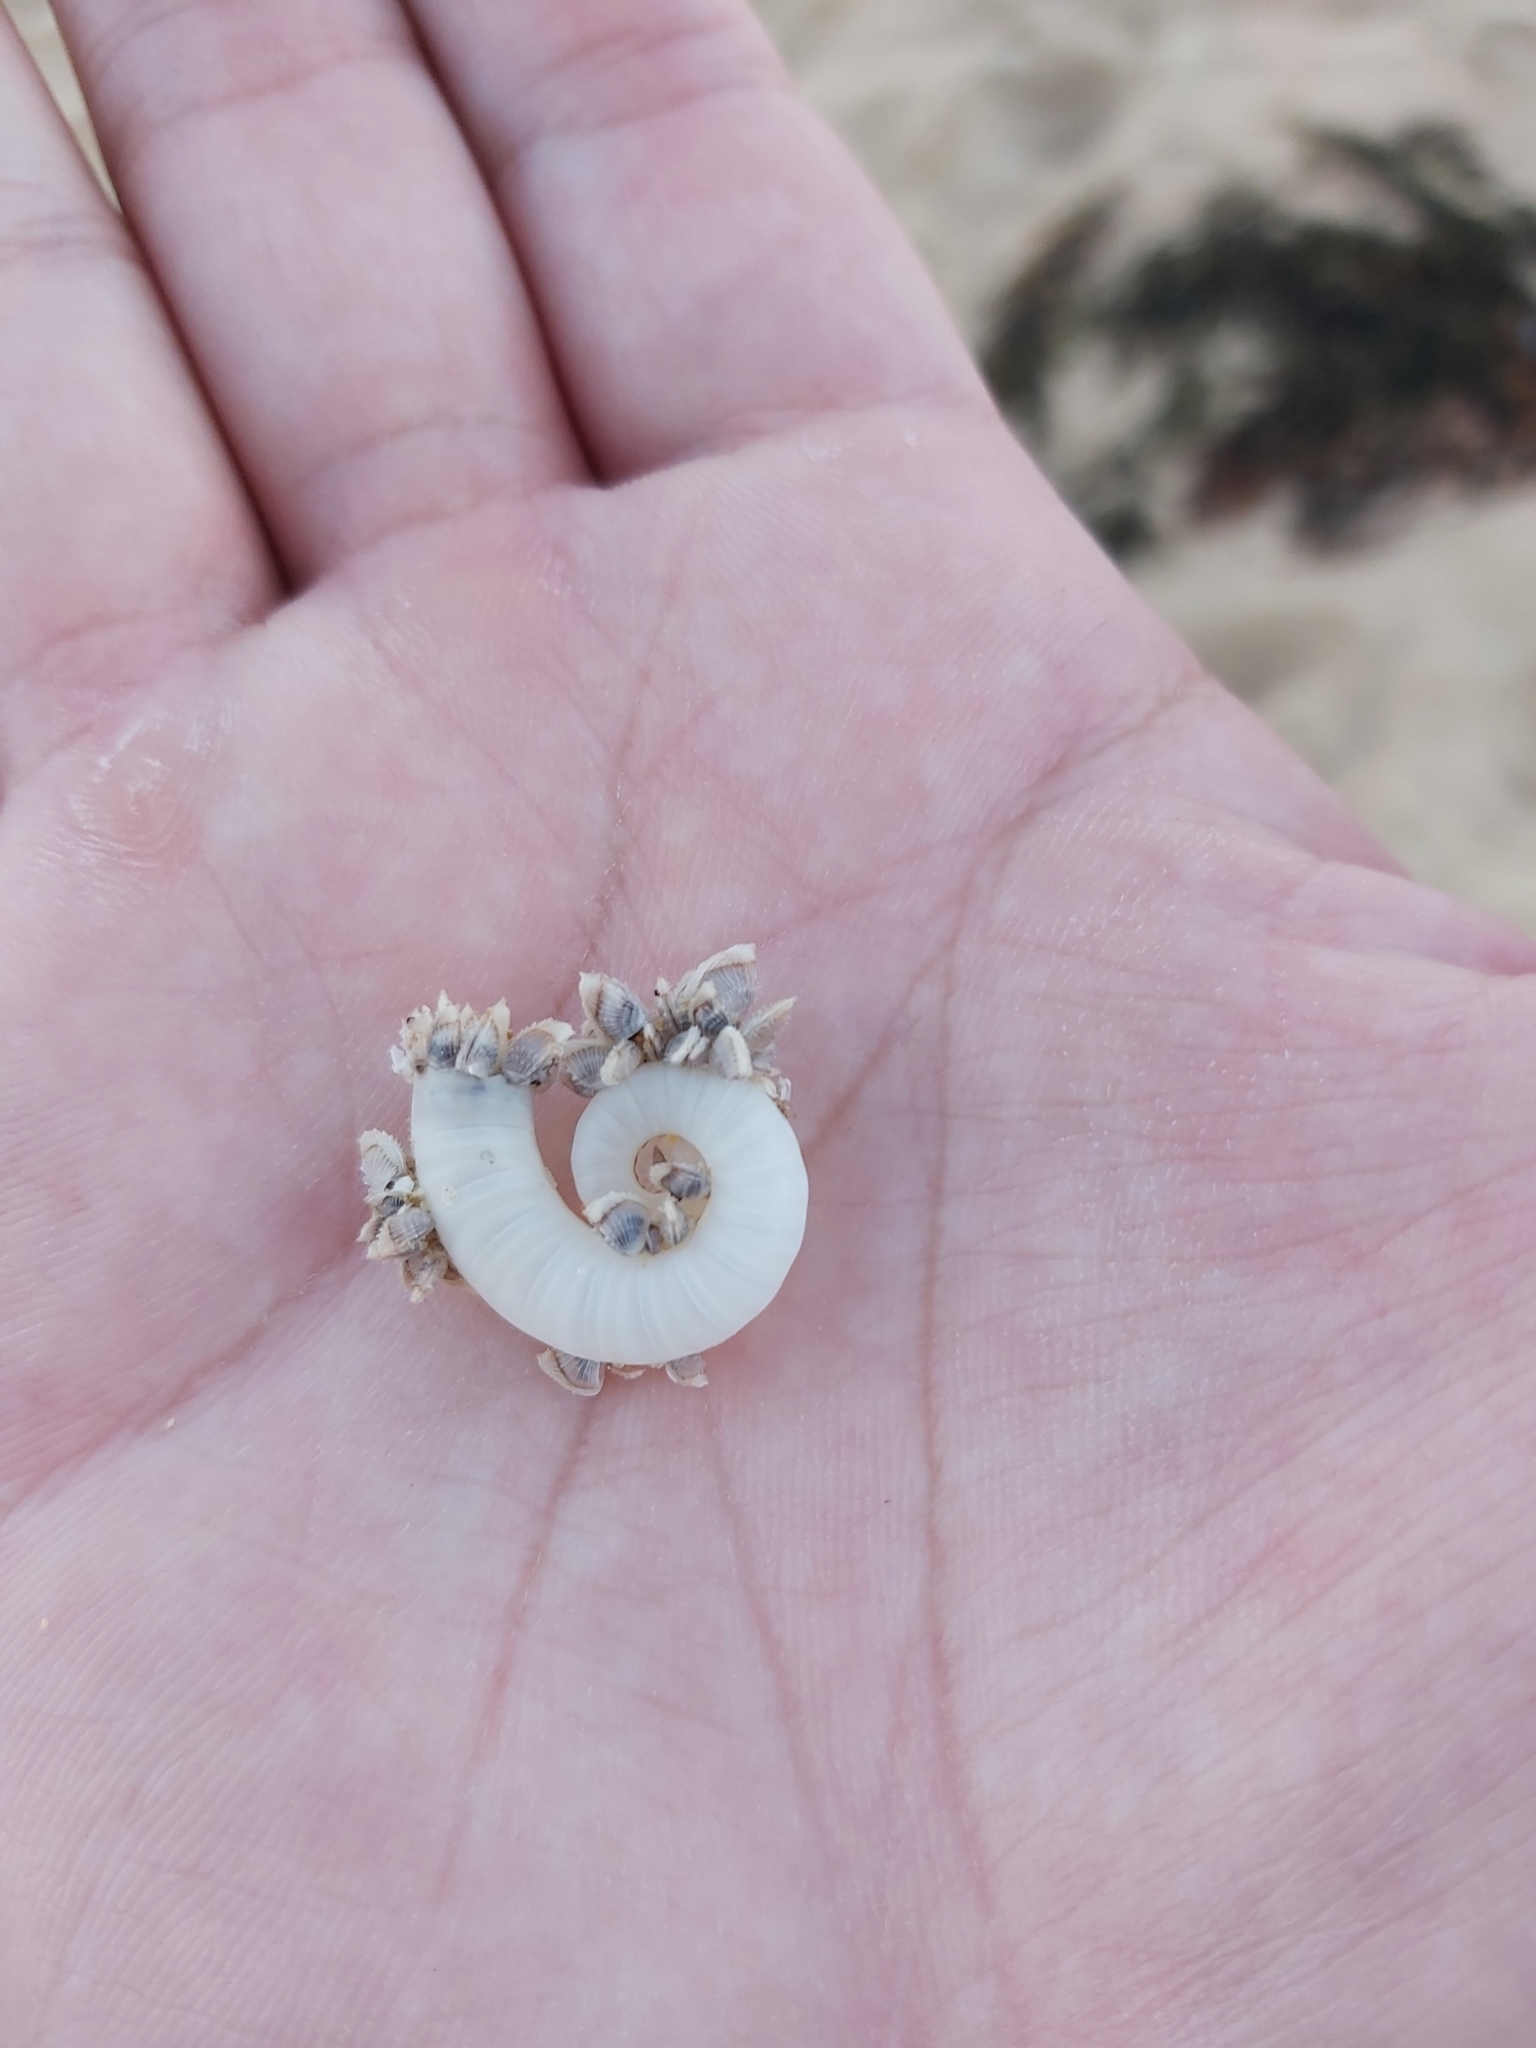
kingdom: Animalia
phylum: Mollusca
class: Cephalopoda
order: Spirulida
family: Spirulidae
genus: Spirula
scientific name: Spirula spirula
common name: Ram's horn squid
